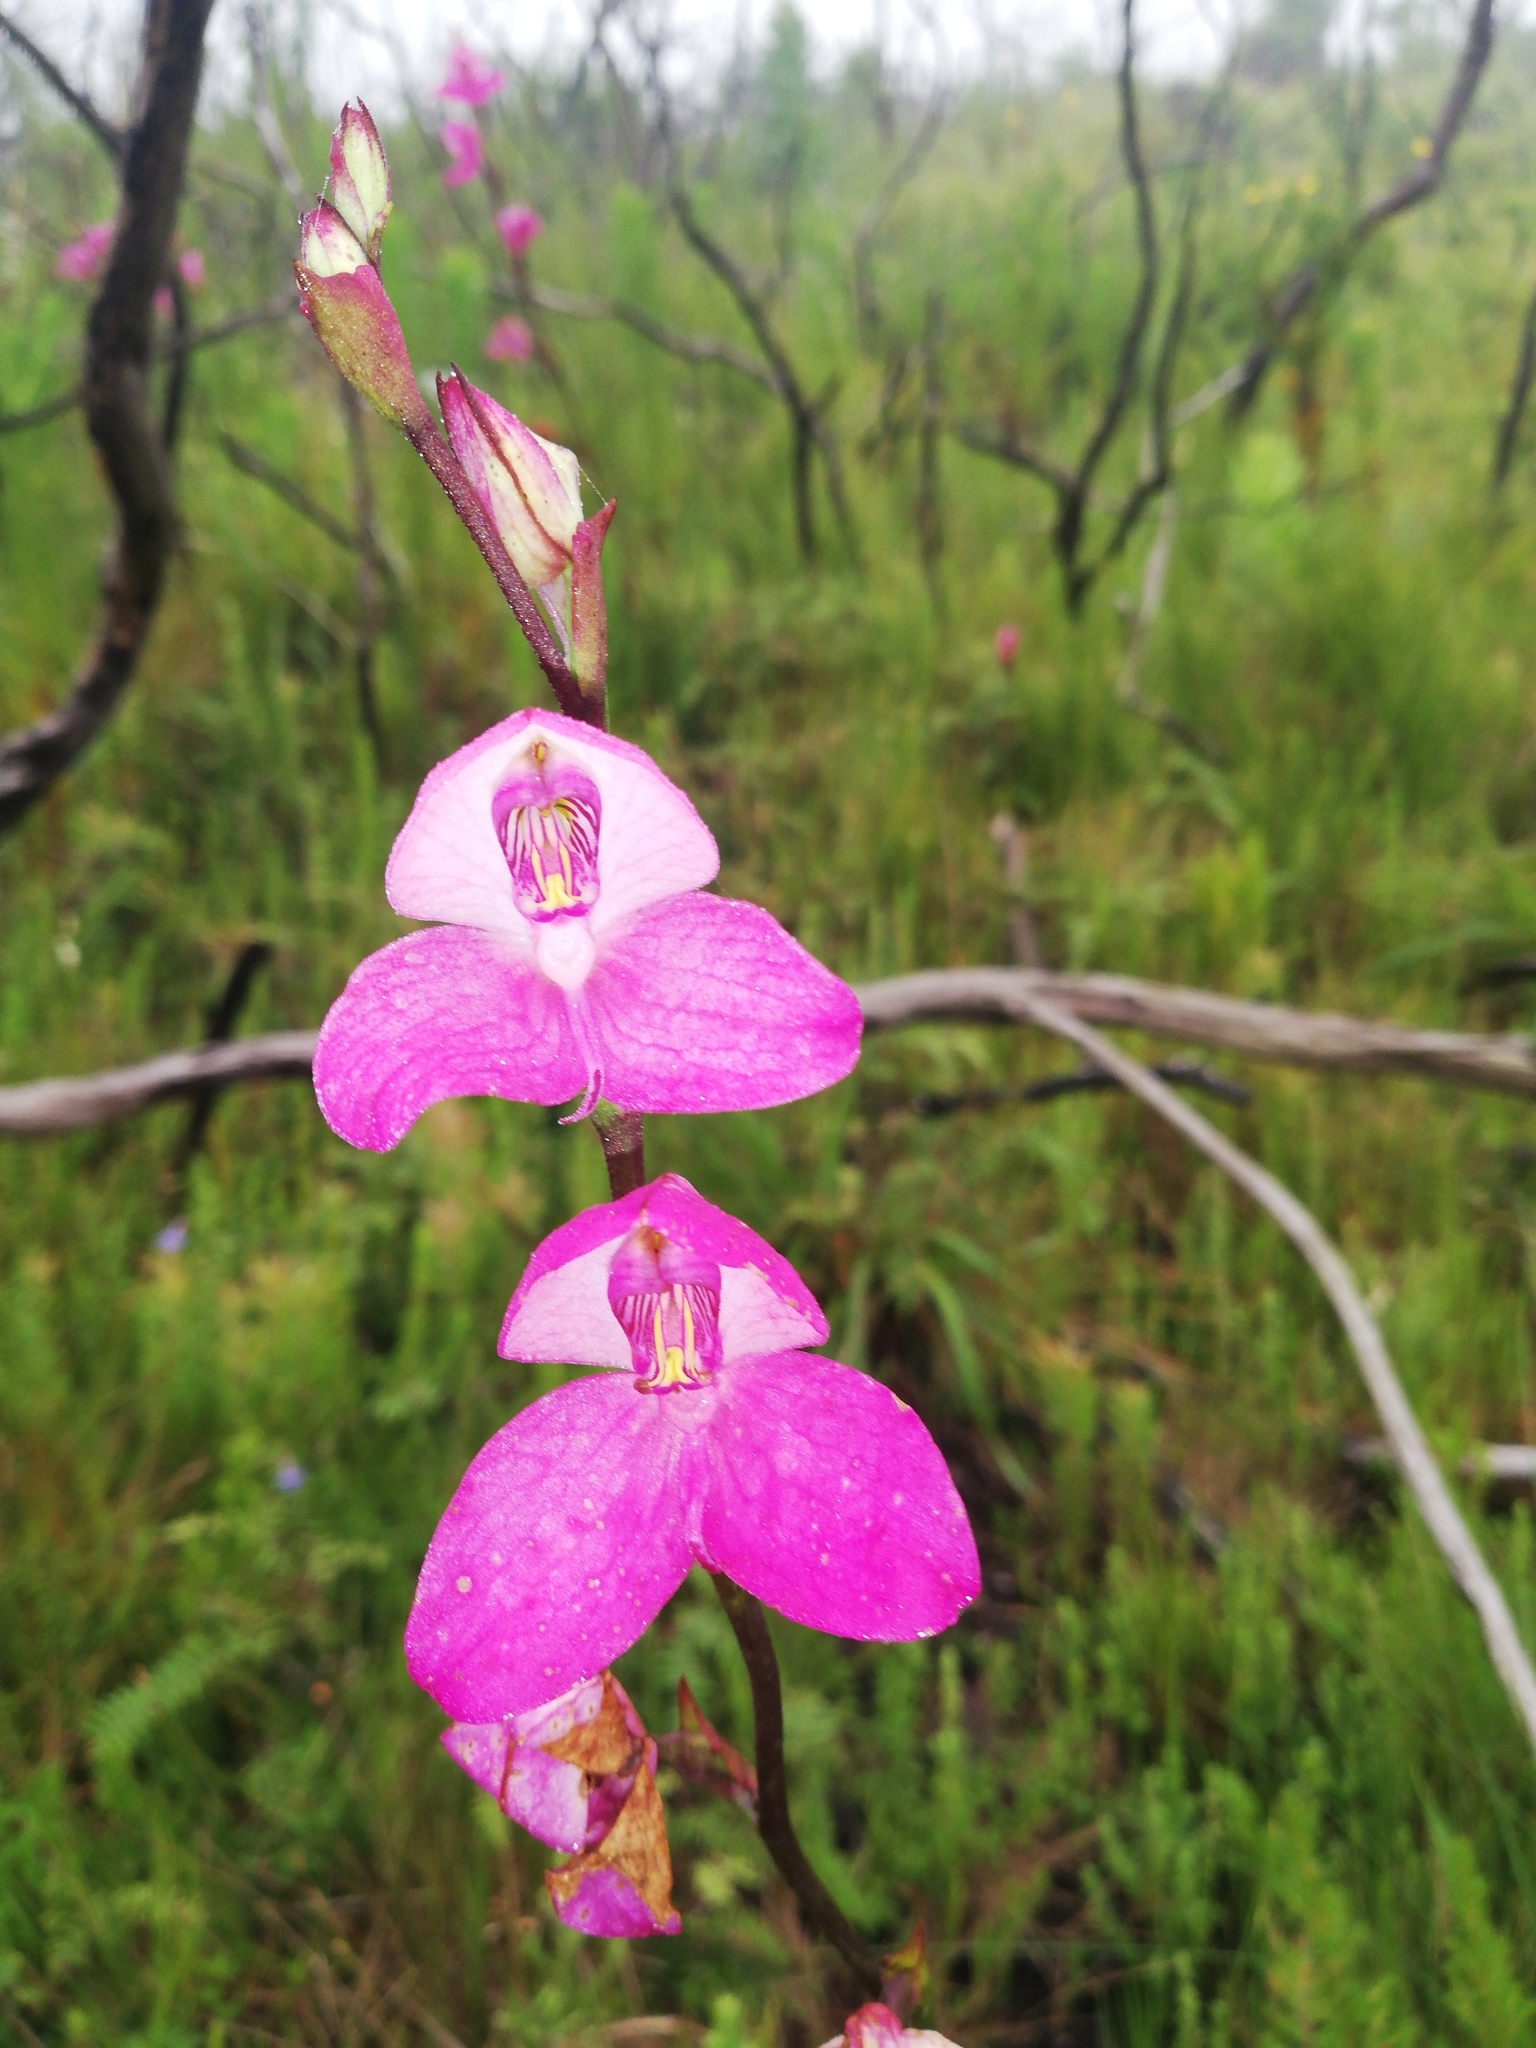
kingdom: Plantae
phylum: Tracheophyta
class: Liliopsida
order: Asparagales
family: Orchidaceae
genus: Disa
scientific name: Disa racemosa
